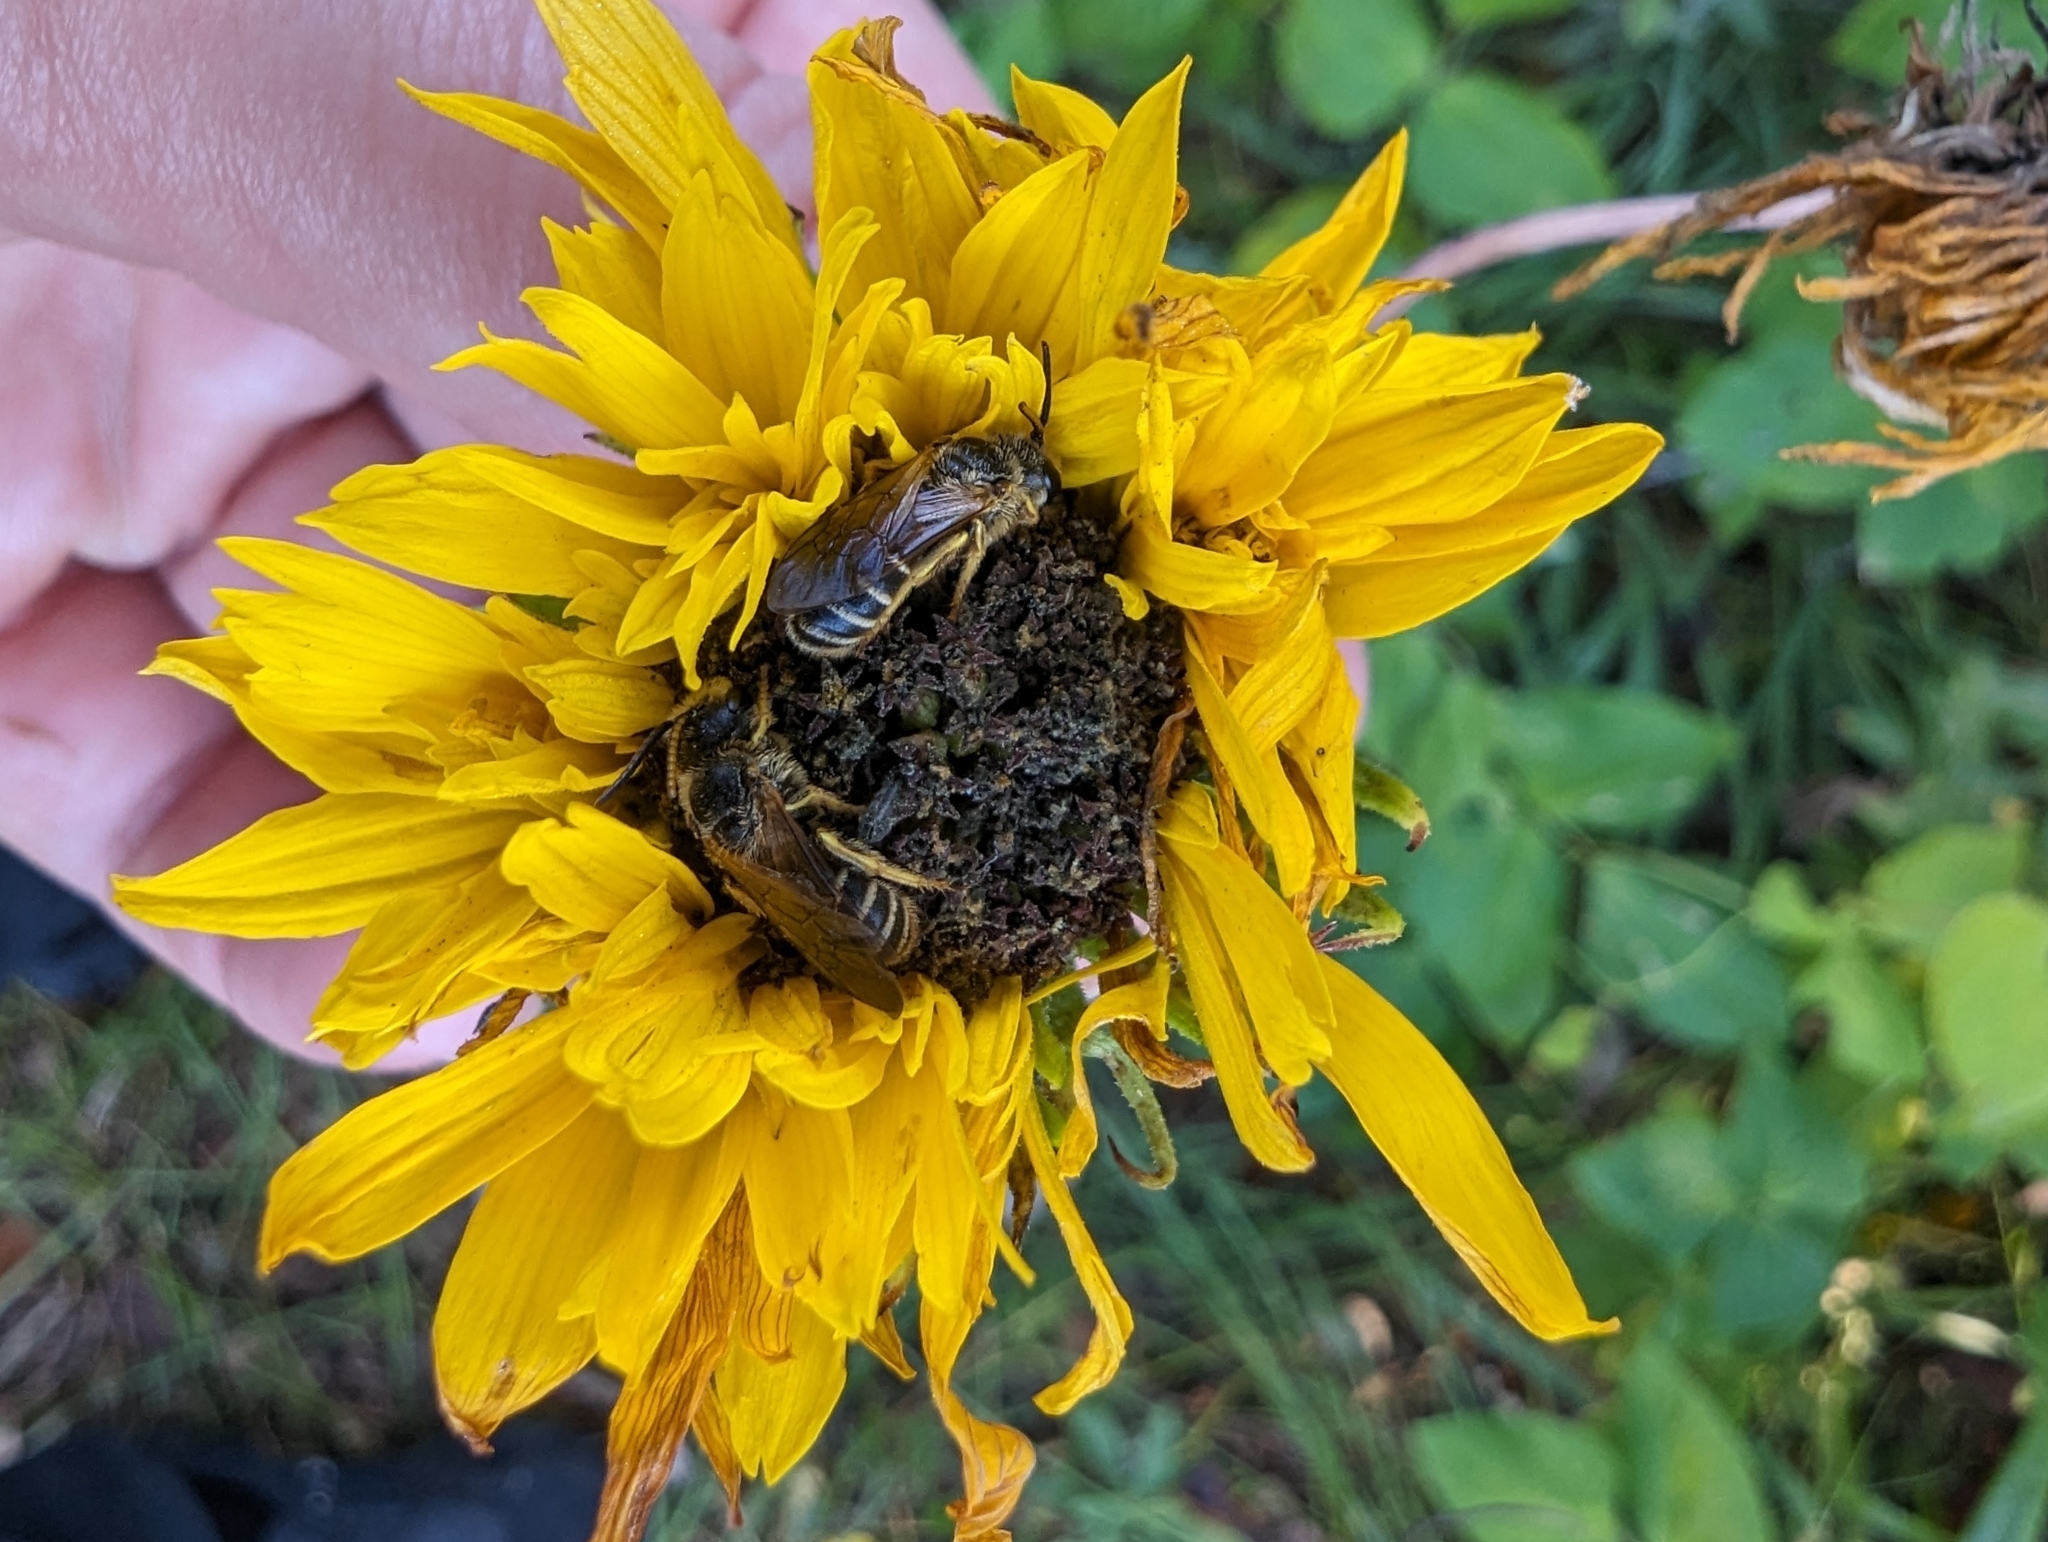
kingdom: Animalia
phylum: Arthropoda
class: Insecta
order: Hymenoptera
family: Halictidae
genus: Halictus
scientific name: Halictus poeyi
